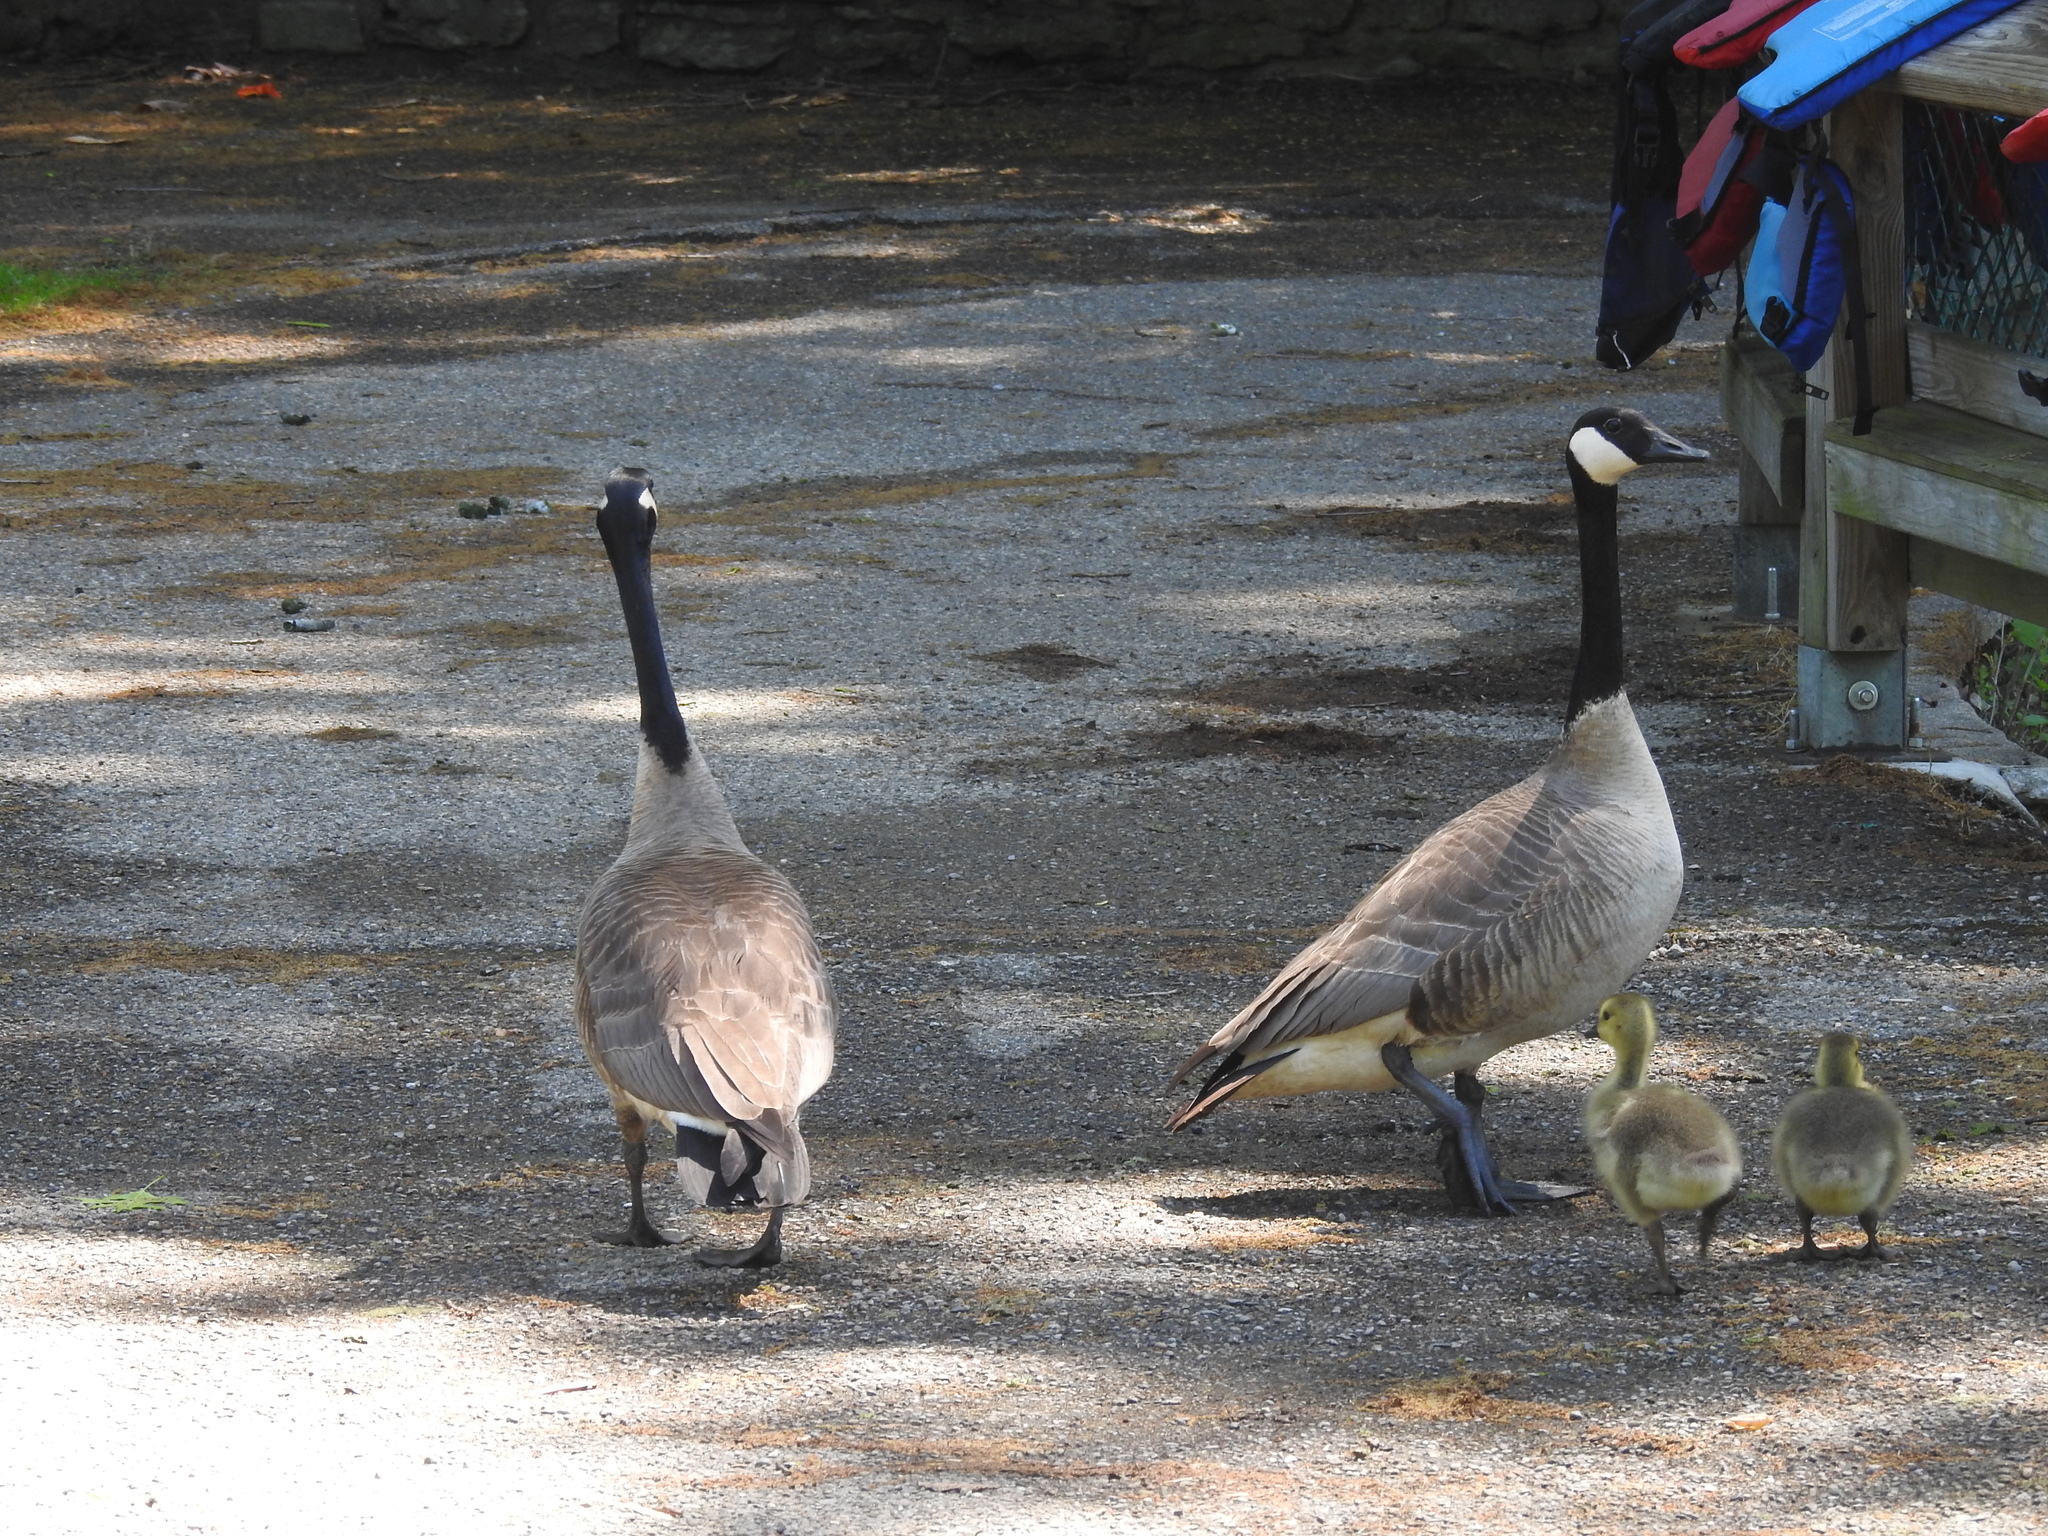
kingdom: Animalia
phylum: Chordata
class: Aves
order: Anseriformes
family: Anatidae
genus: Branta
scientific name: Branta canadensis
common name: Canada goose
